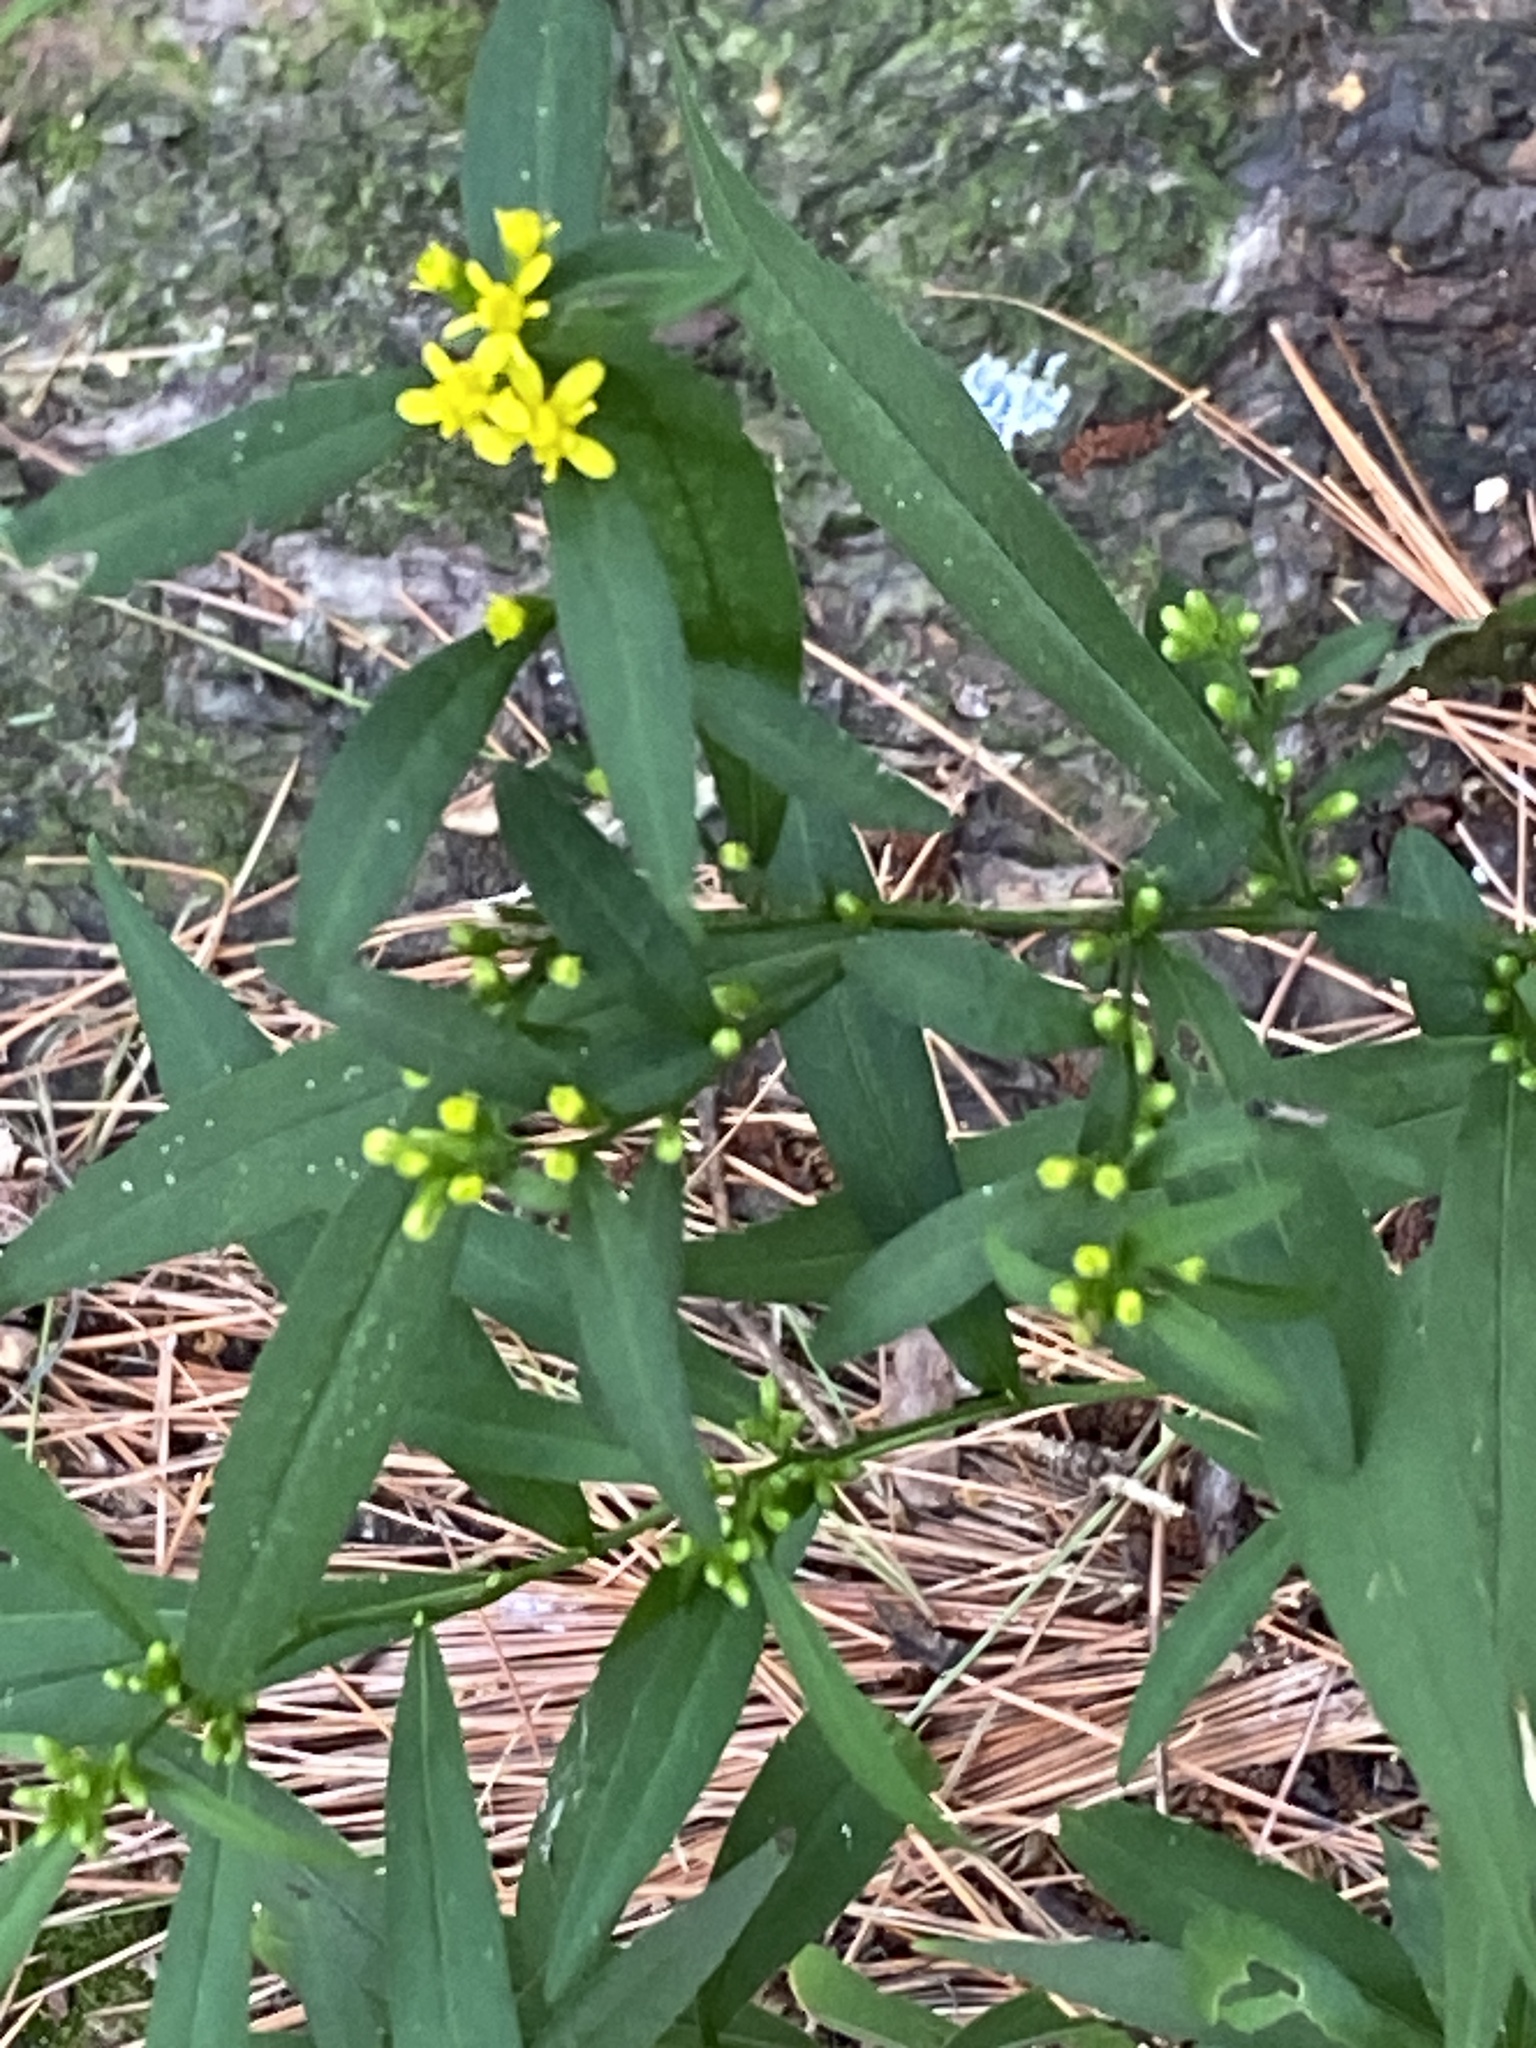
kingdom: Plantae
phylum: Tracheophyta
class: Magnoliopsida
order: Asterales
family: Asteraceae
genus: Solidago
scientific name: Solidago caesia
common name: Woodland goldenrod
